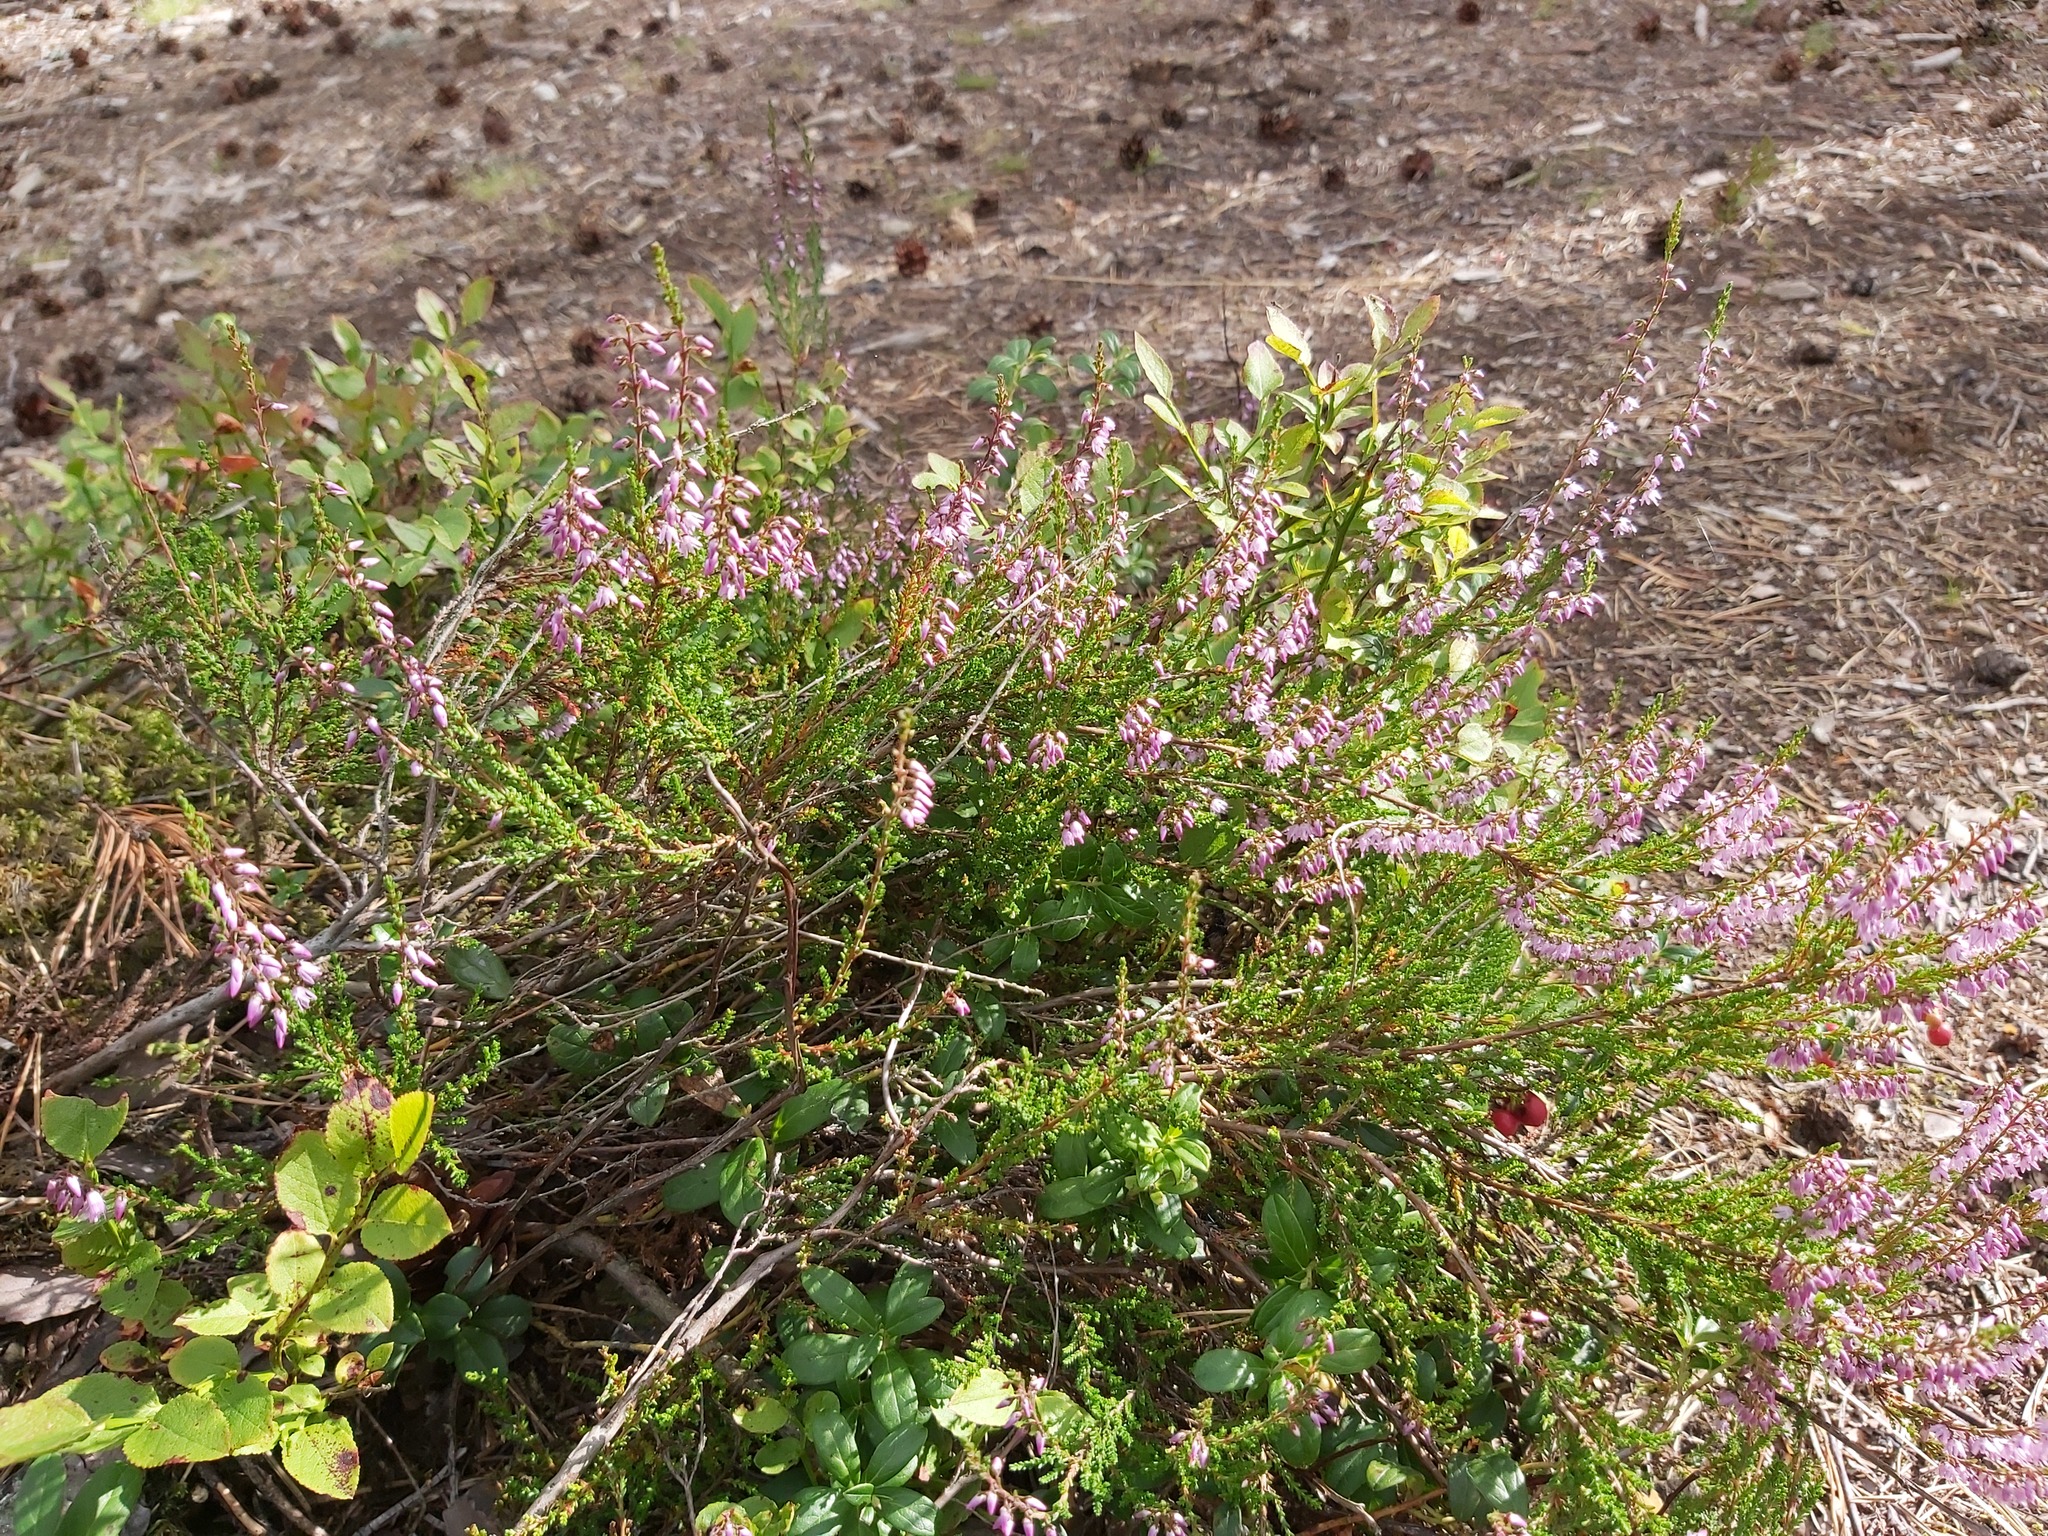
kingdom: Plantae
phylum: Tracheophyta
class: Magnoliopsida
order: Ericales
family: Ericaceae
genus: Calluna
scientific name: Calluna vulgaris
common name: Heather
